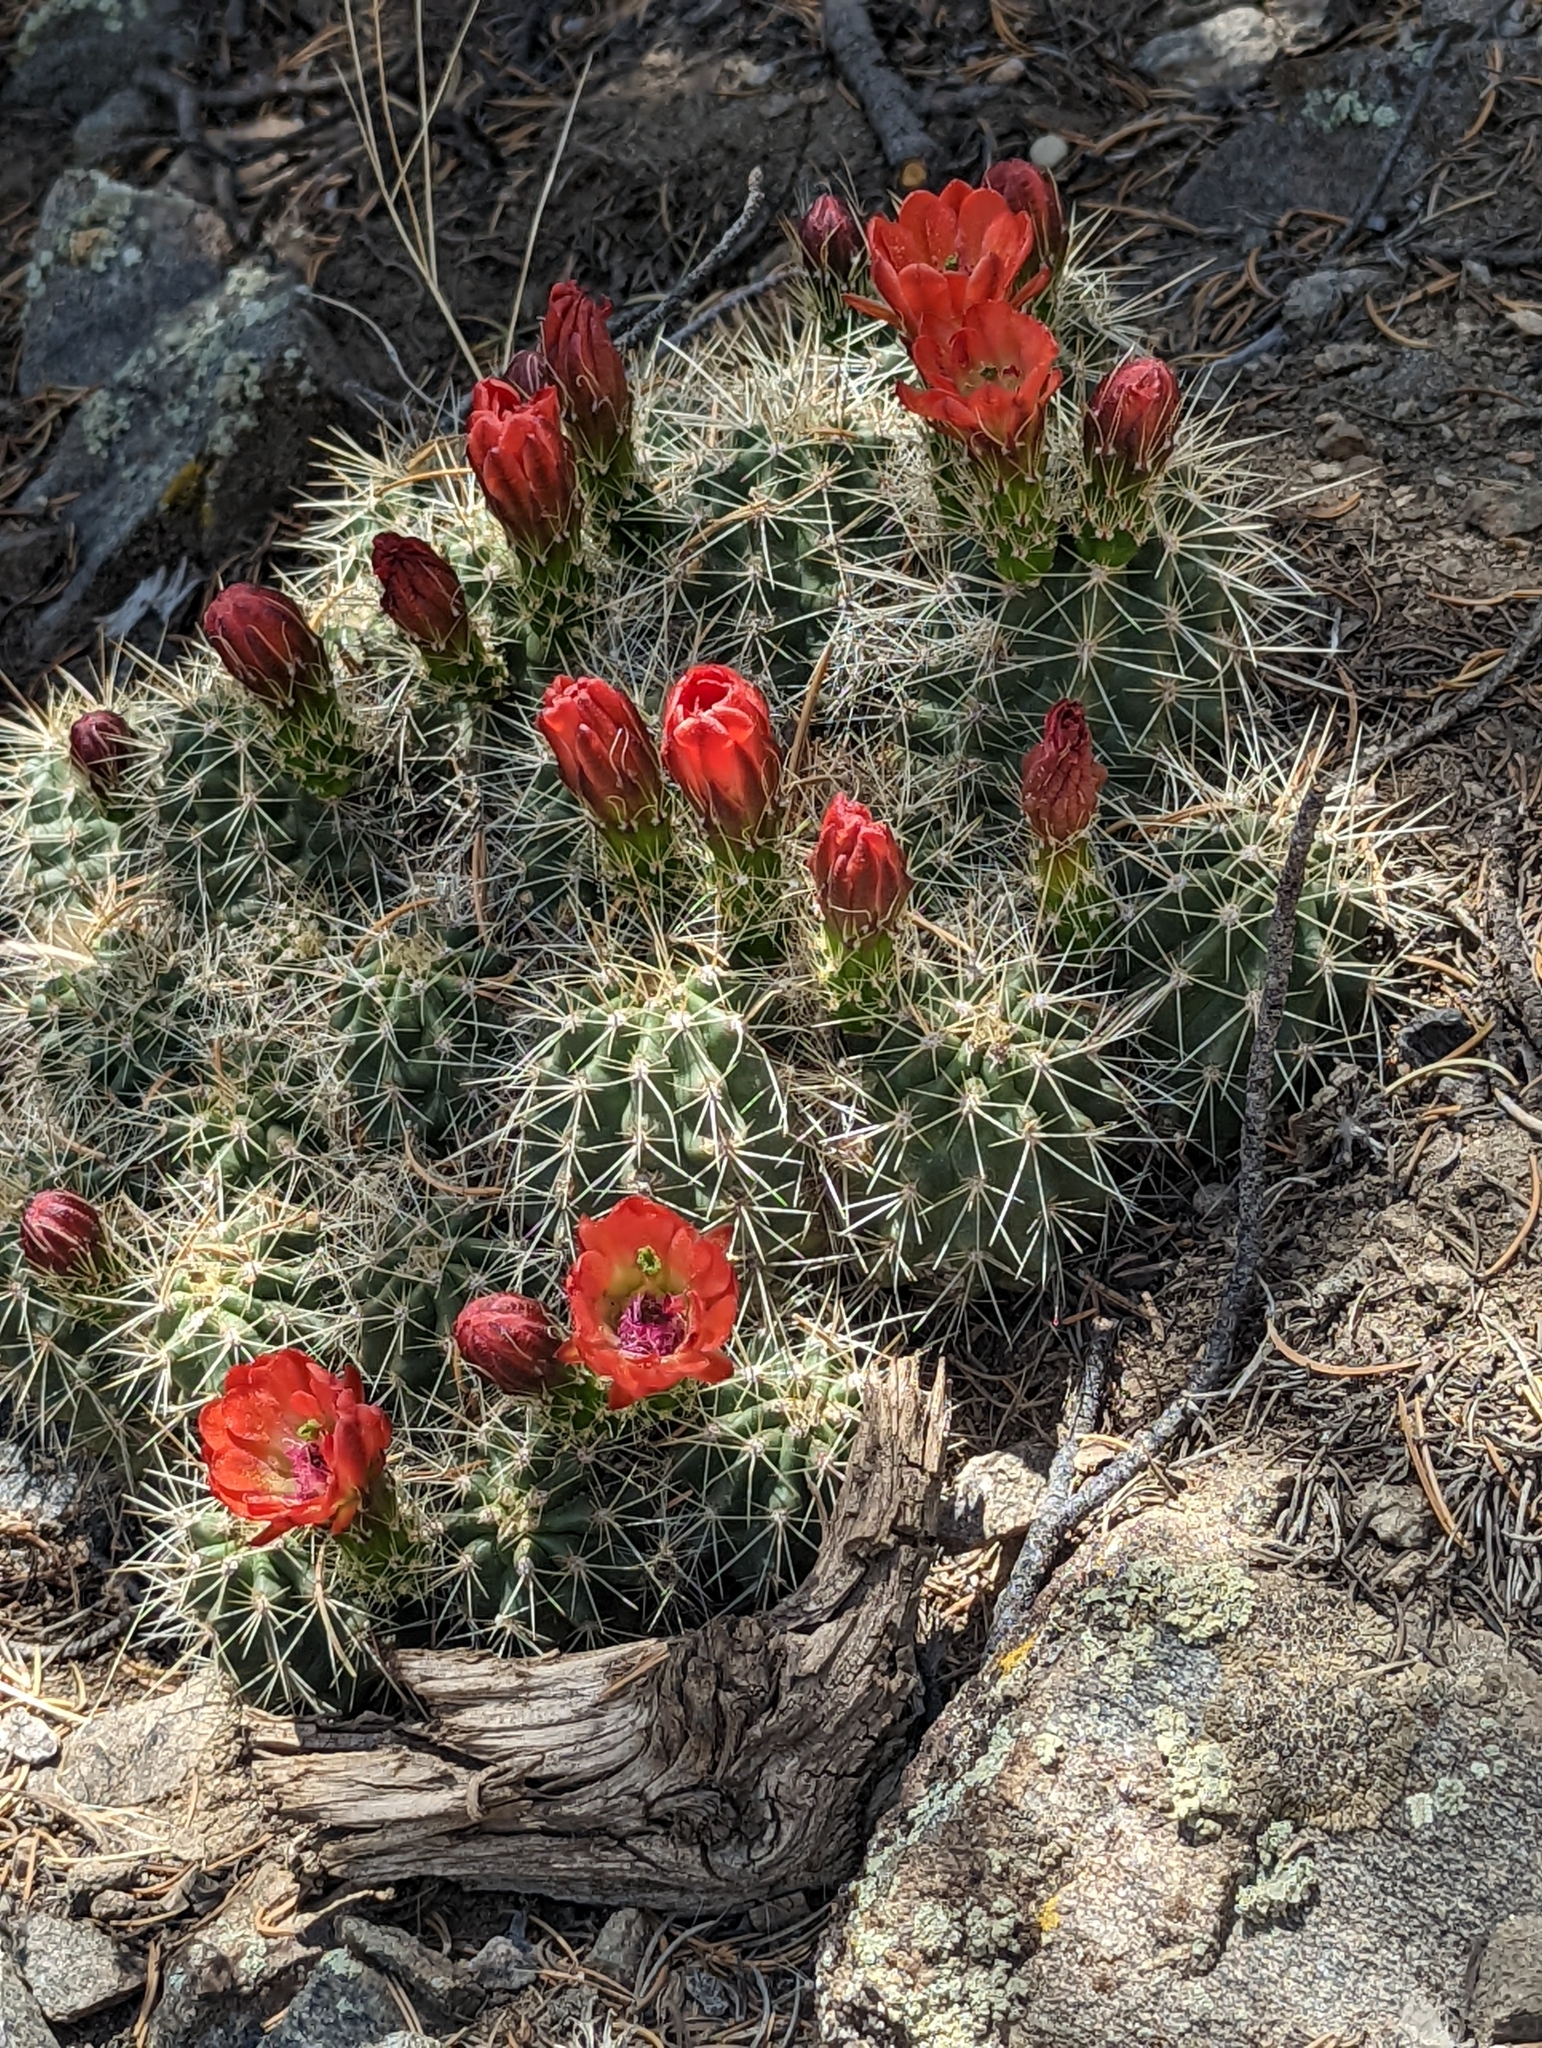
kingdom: Plantae
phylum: Tracheophyta
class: Magnoliopsida
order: Caryophyllales
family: Cactaceae
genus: Echinocereus
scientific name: Echinocereus coccineus
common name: Scarlet hedgehog cactus
